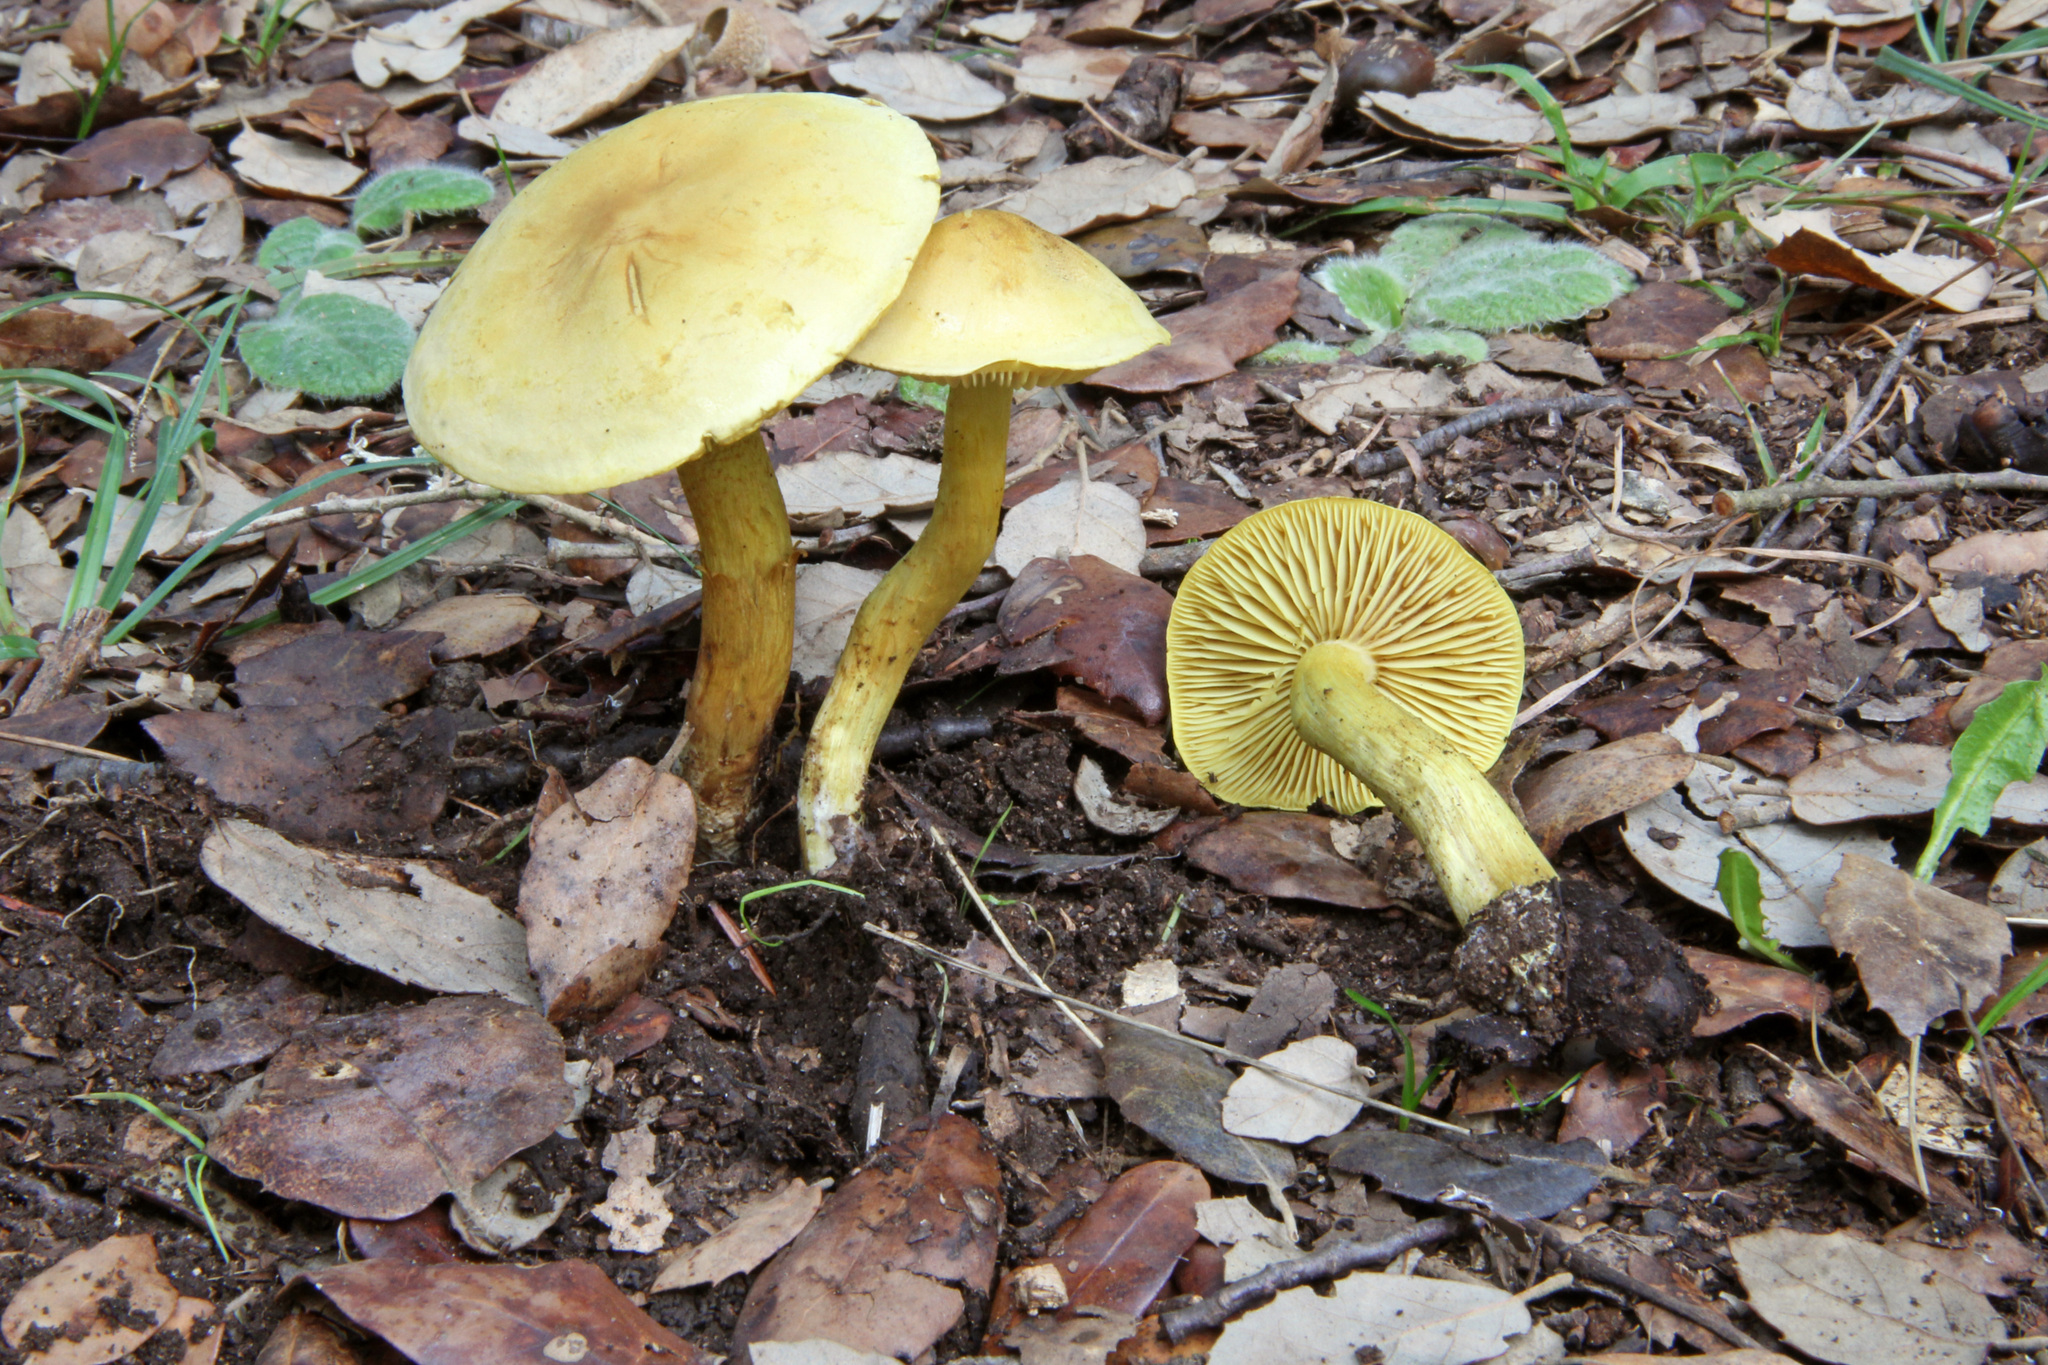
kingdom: Fungi
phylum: Basidiomycota
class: Agaricomycetes
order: Agaricales
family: Tricholomataceae
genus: Tricholoma
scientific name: Tricholoma sulphureum
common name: Stinky knight
